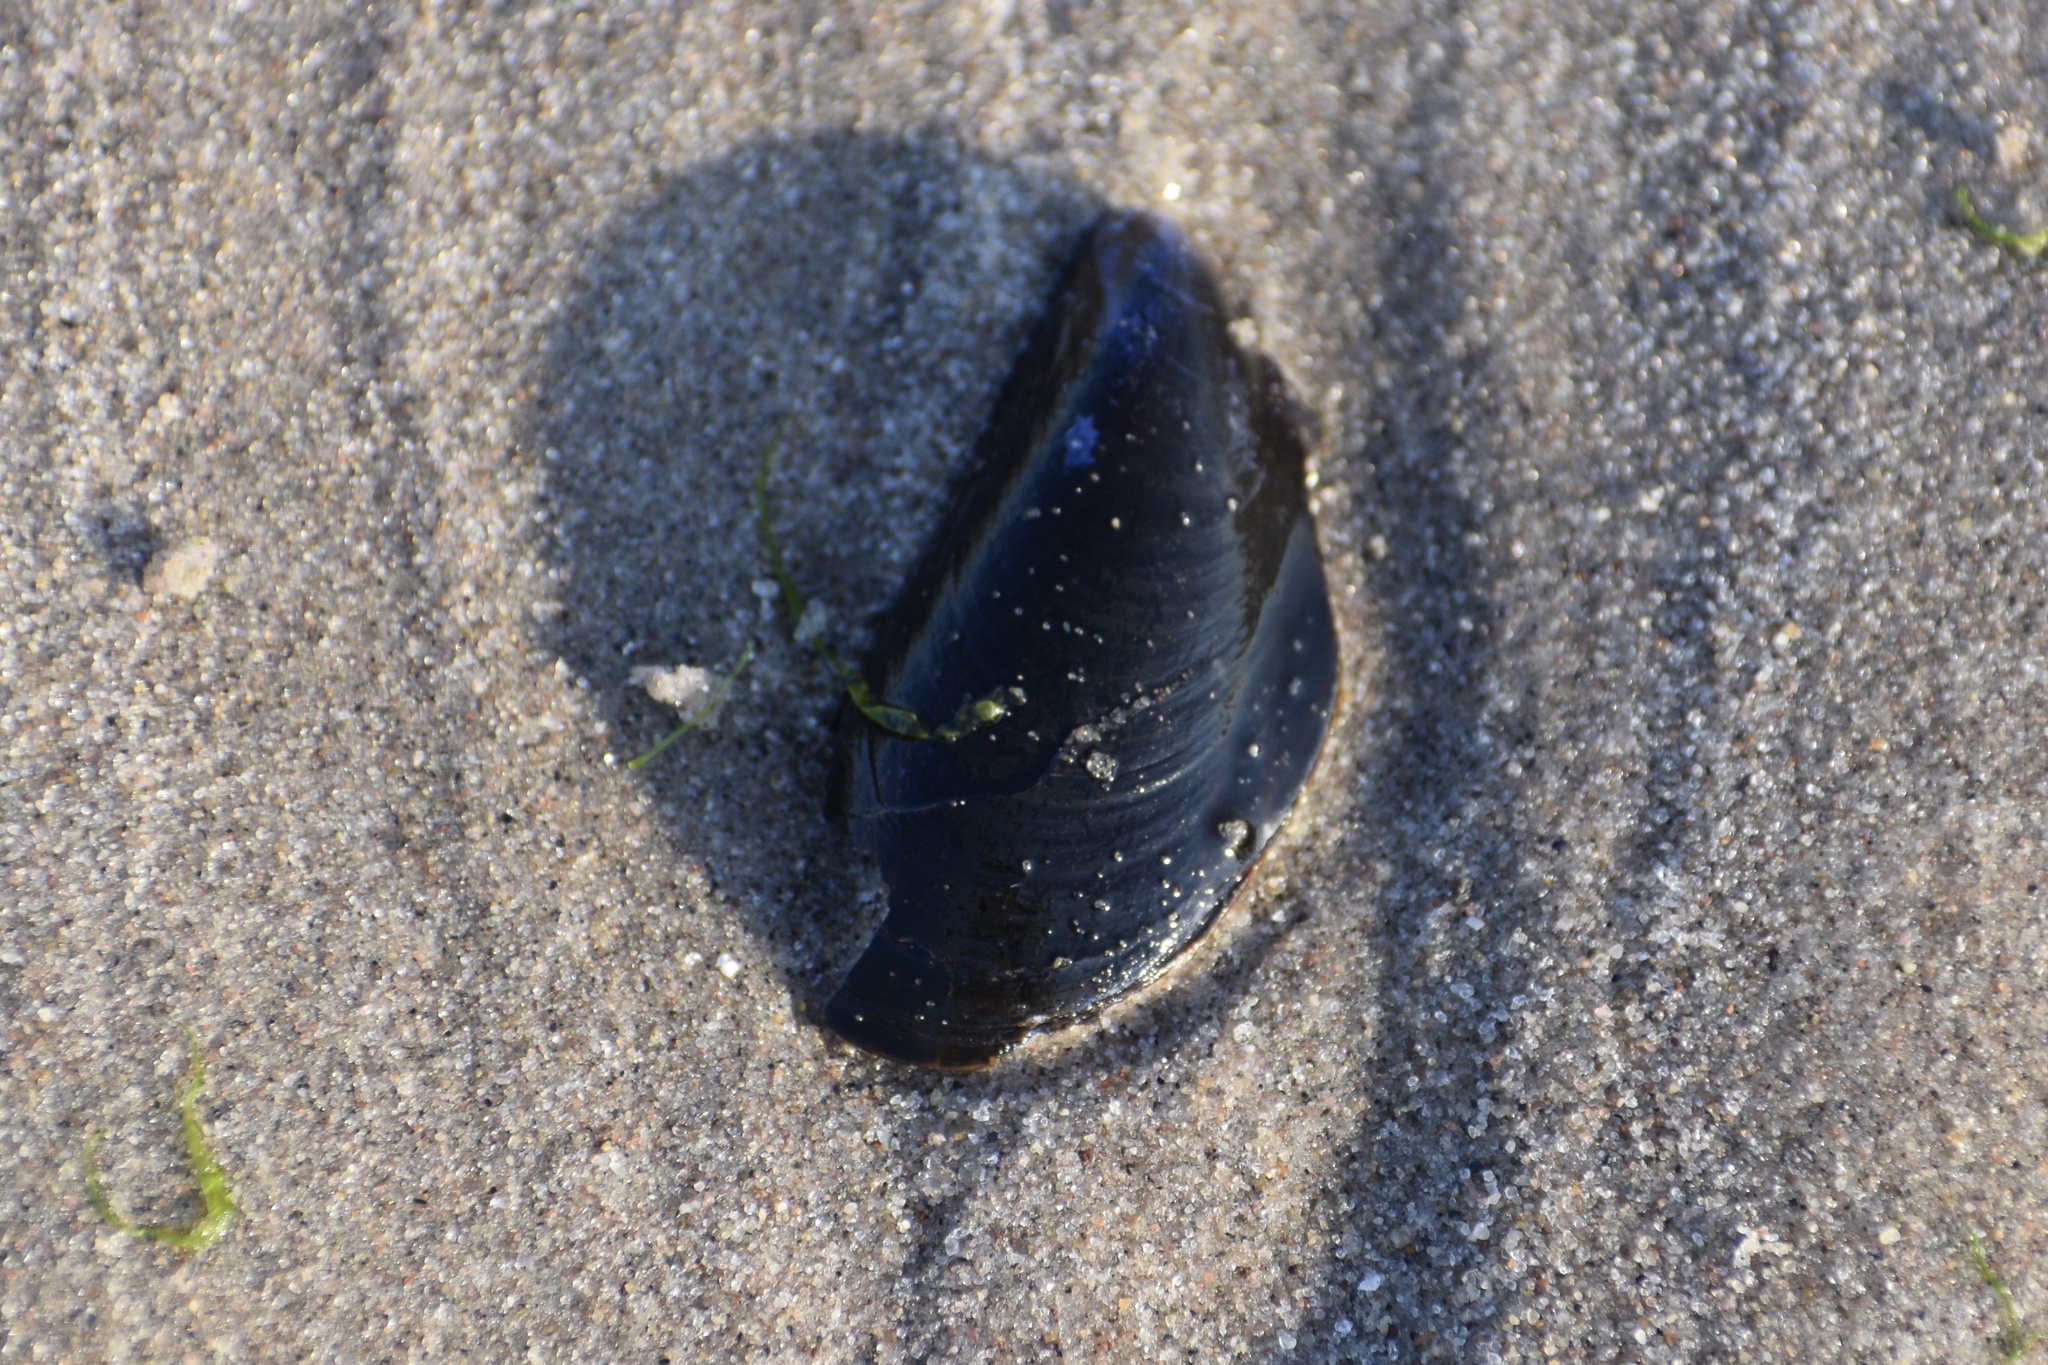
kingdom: Animalia
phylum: Mollusca
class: Bivalvia
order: Mytilida
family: Mytilidae
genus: Mytilus
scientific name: Mytilus edulis
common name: Blue mussel
